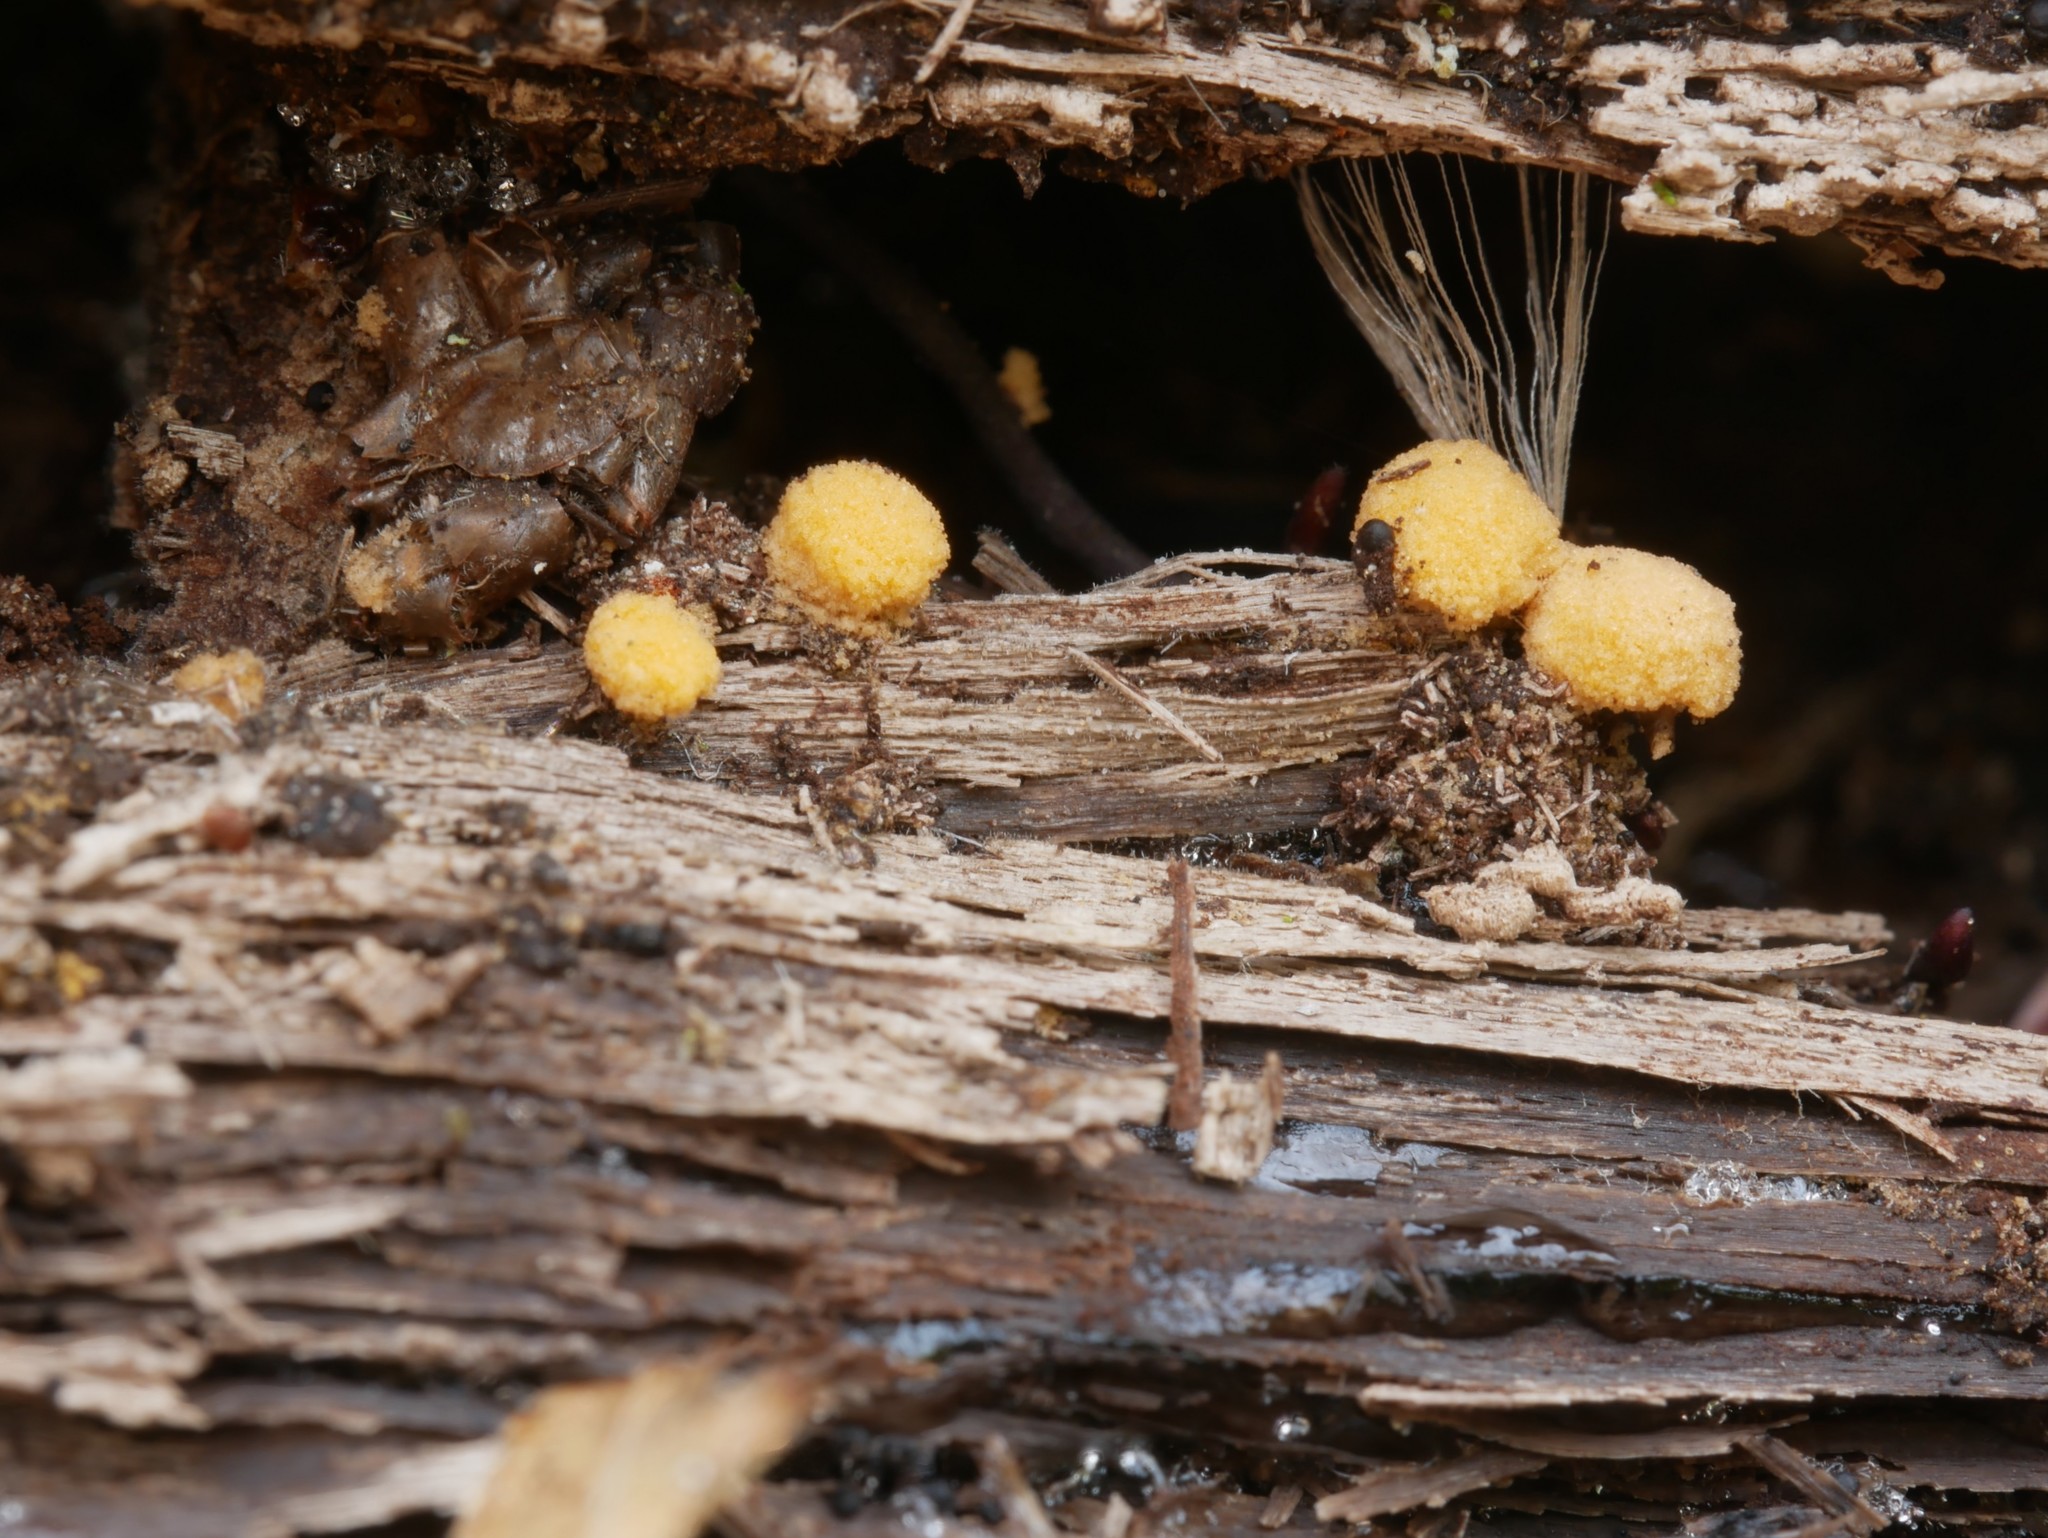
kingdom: Fungi
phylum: Ascomycota
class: Pezizomycetes
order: Pezizales
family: Pyronemataceae
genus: Sphaerosporium
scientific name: Sphaerosporium lignatile
